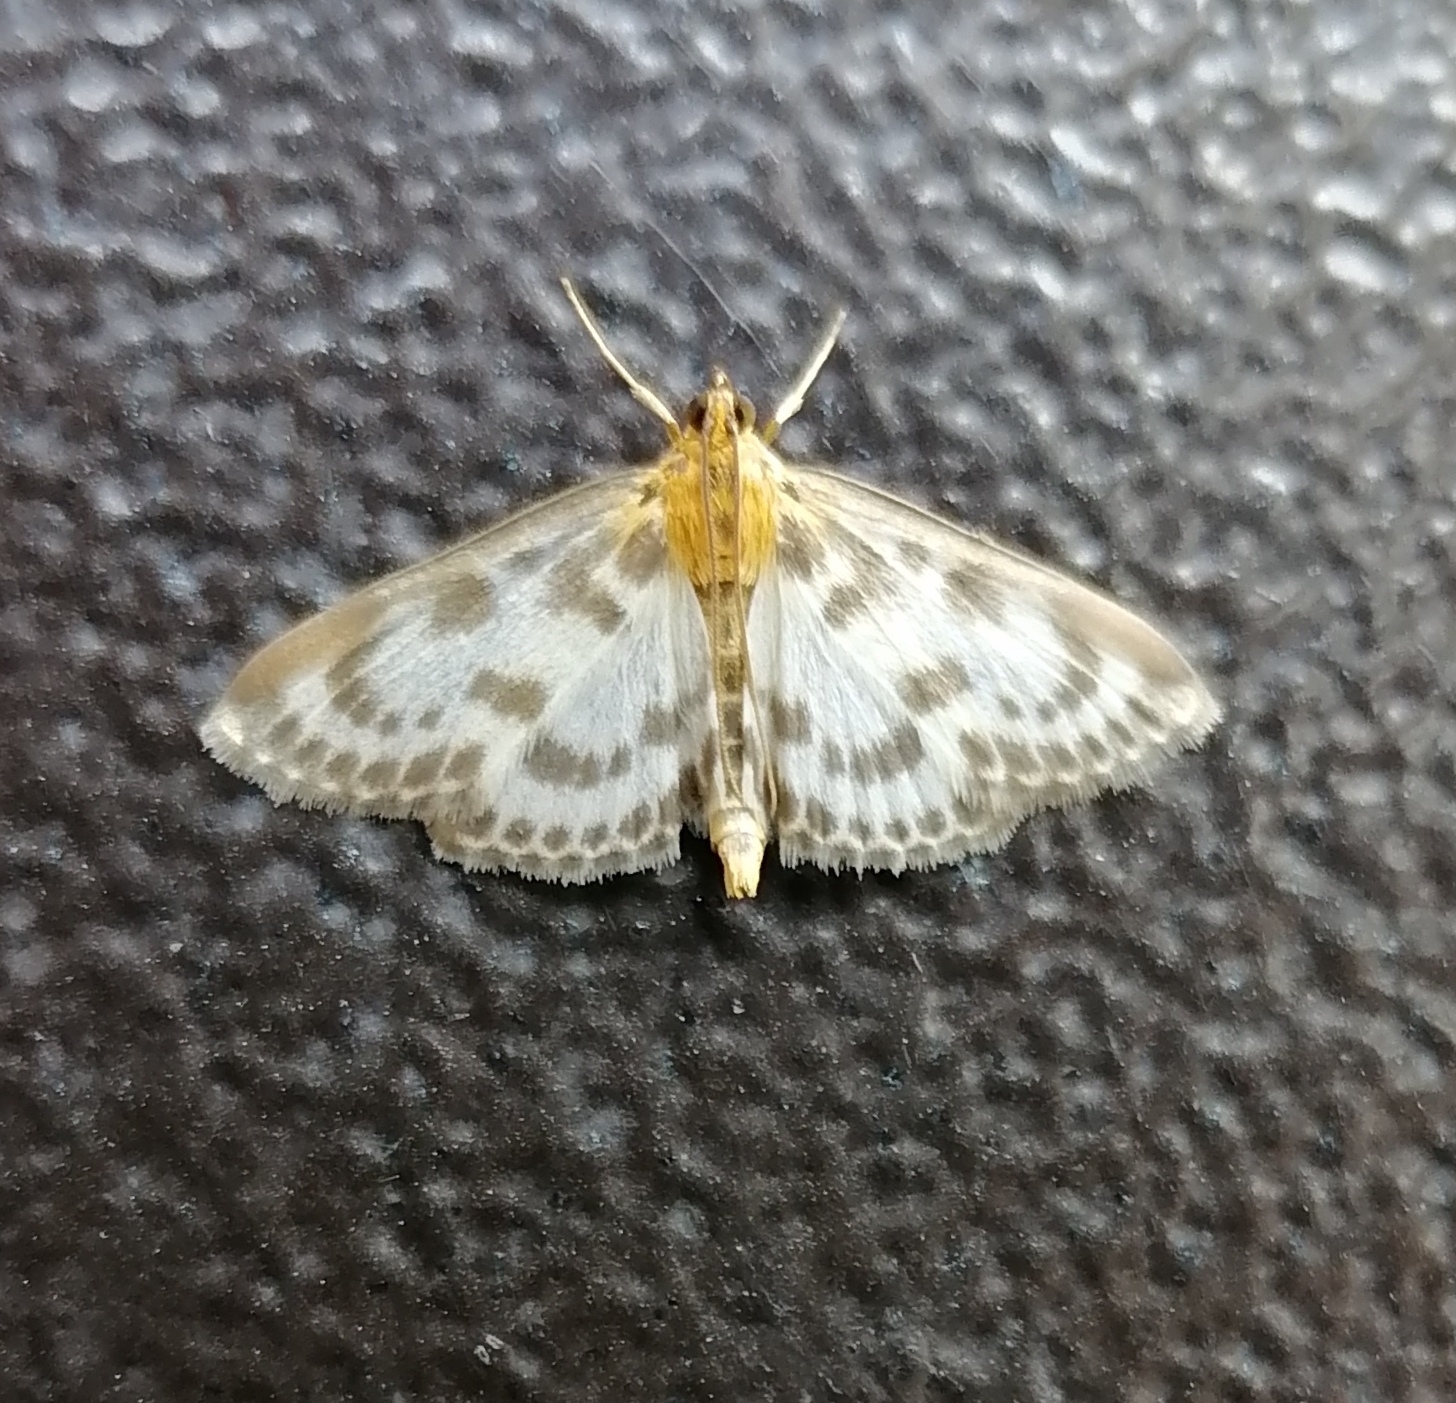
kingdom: Animalia
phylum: Arthropoda
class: Insecta
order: Lepidoptera
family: Crambidae
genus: Anania
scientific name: Anania hortulata
